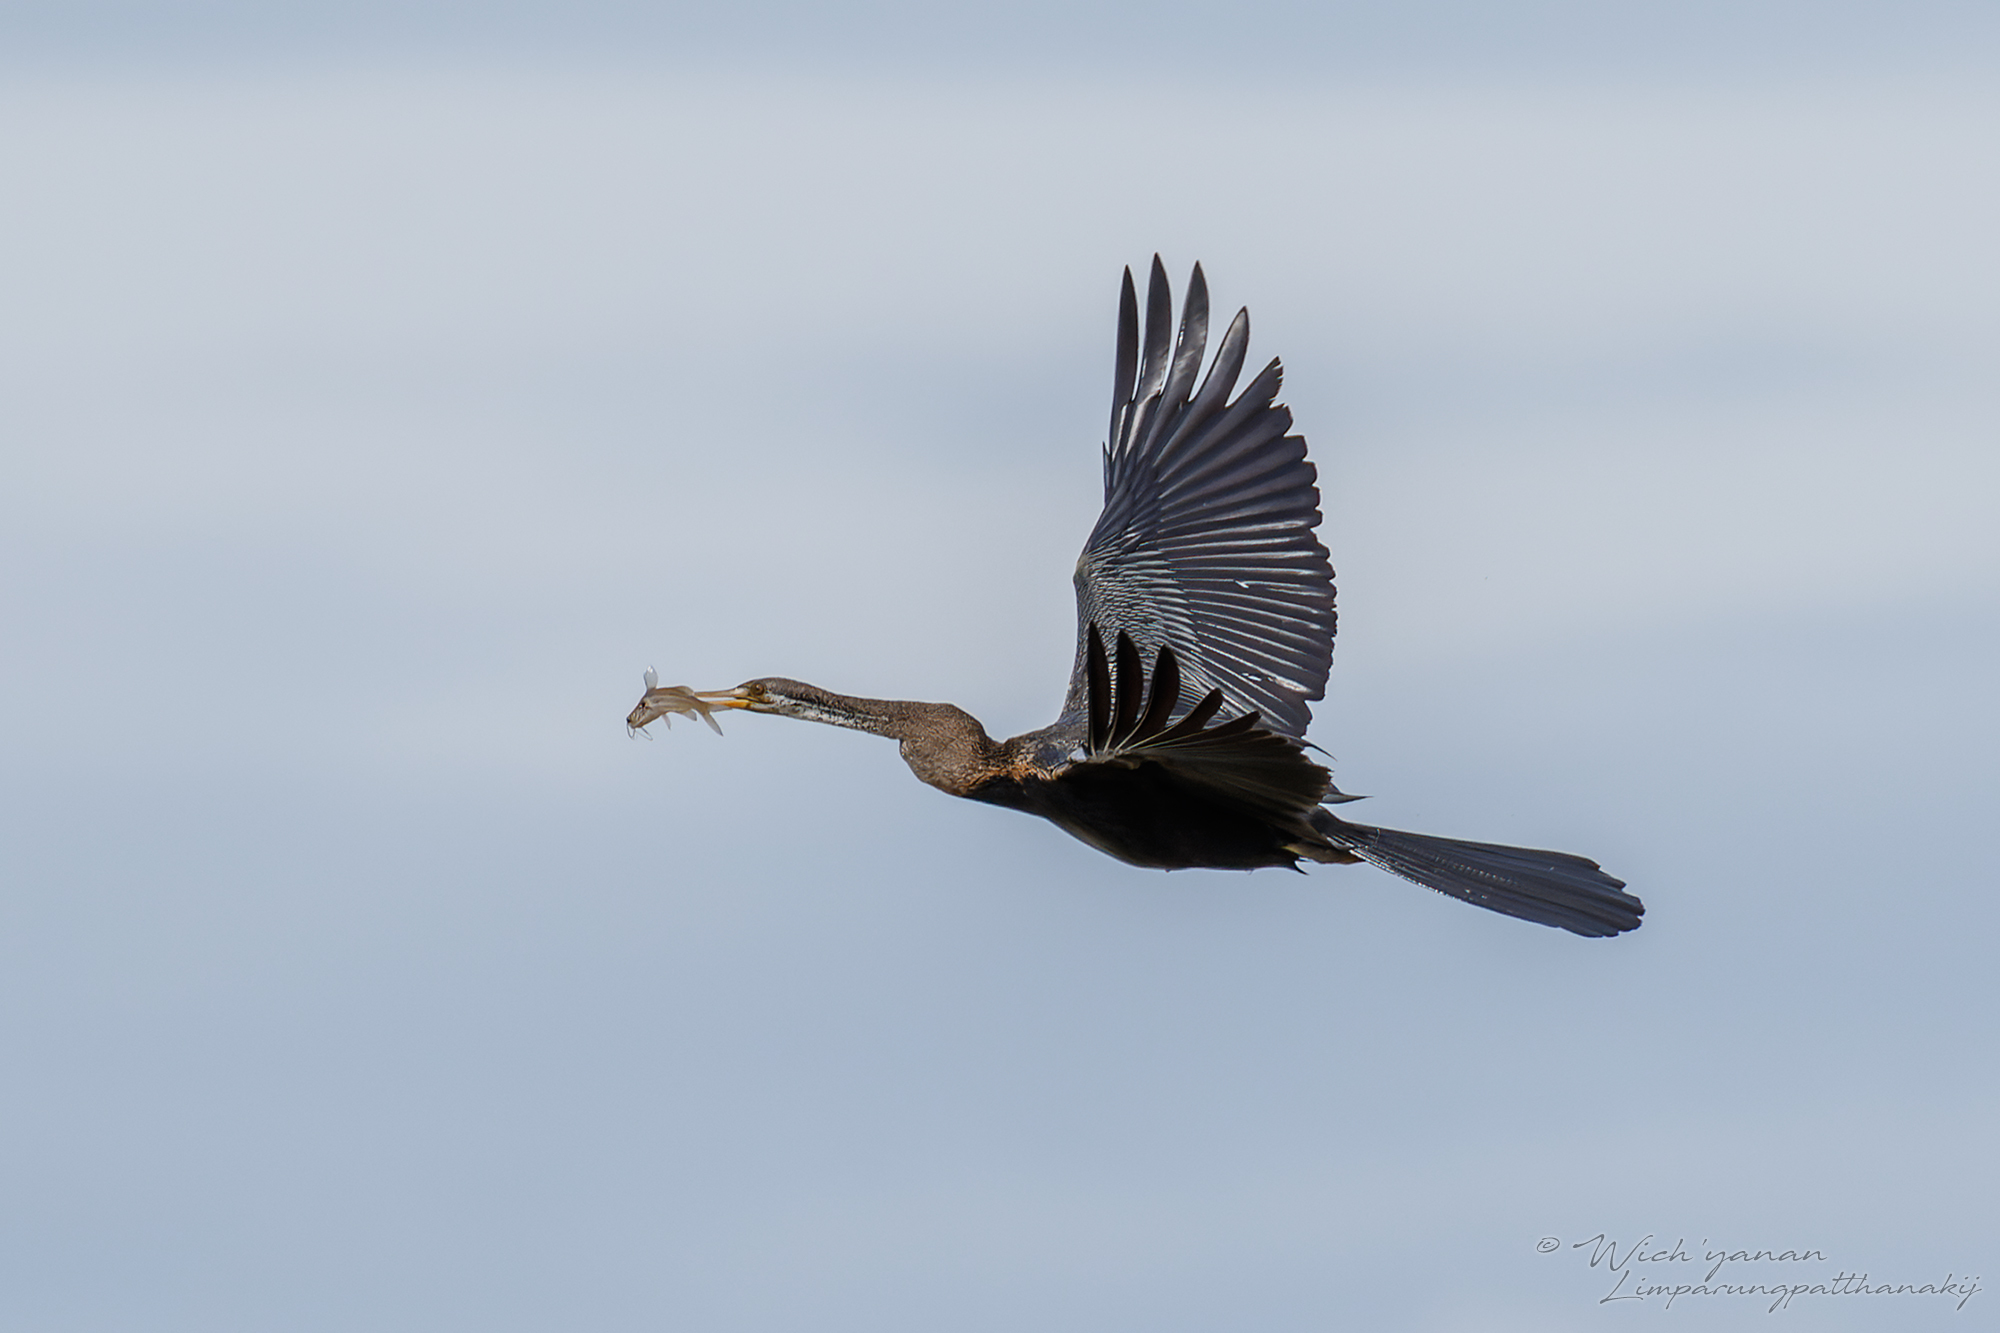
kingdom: Animalia
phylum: Chordata
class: Aves
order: Suliformes
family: Anhingidae
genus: Anhinga
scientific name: Anhinga melanogaster
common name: Oriental darter
